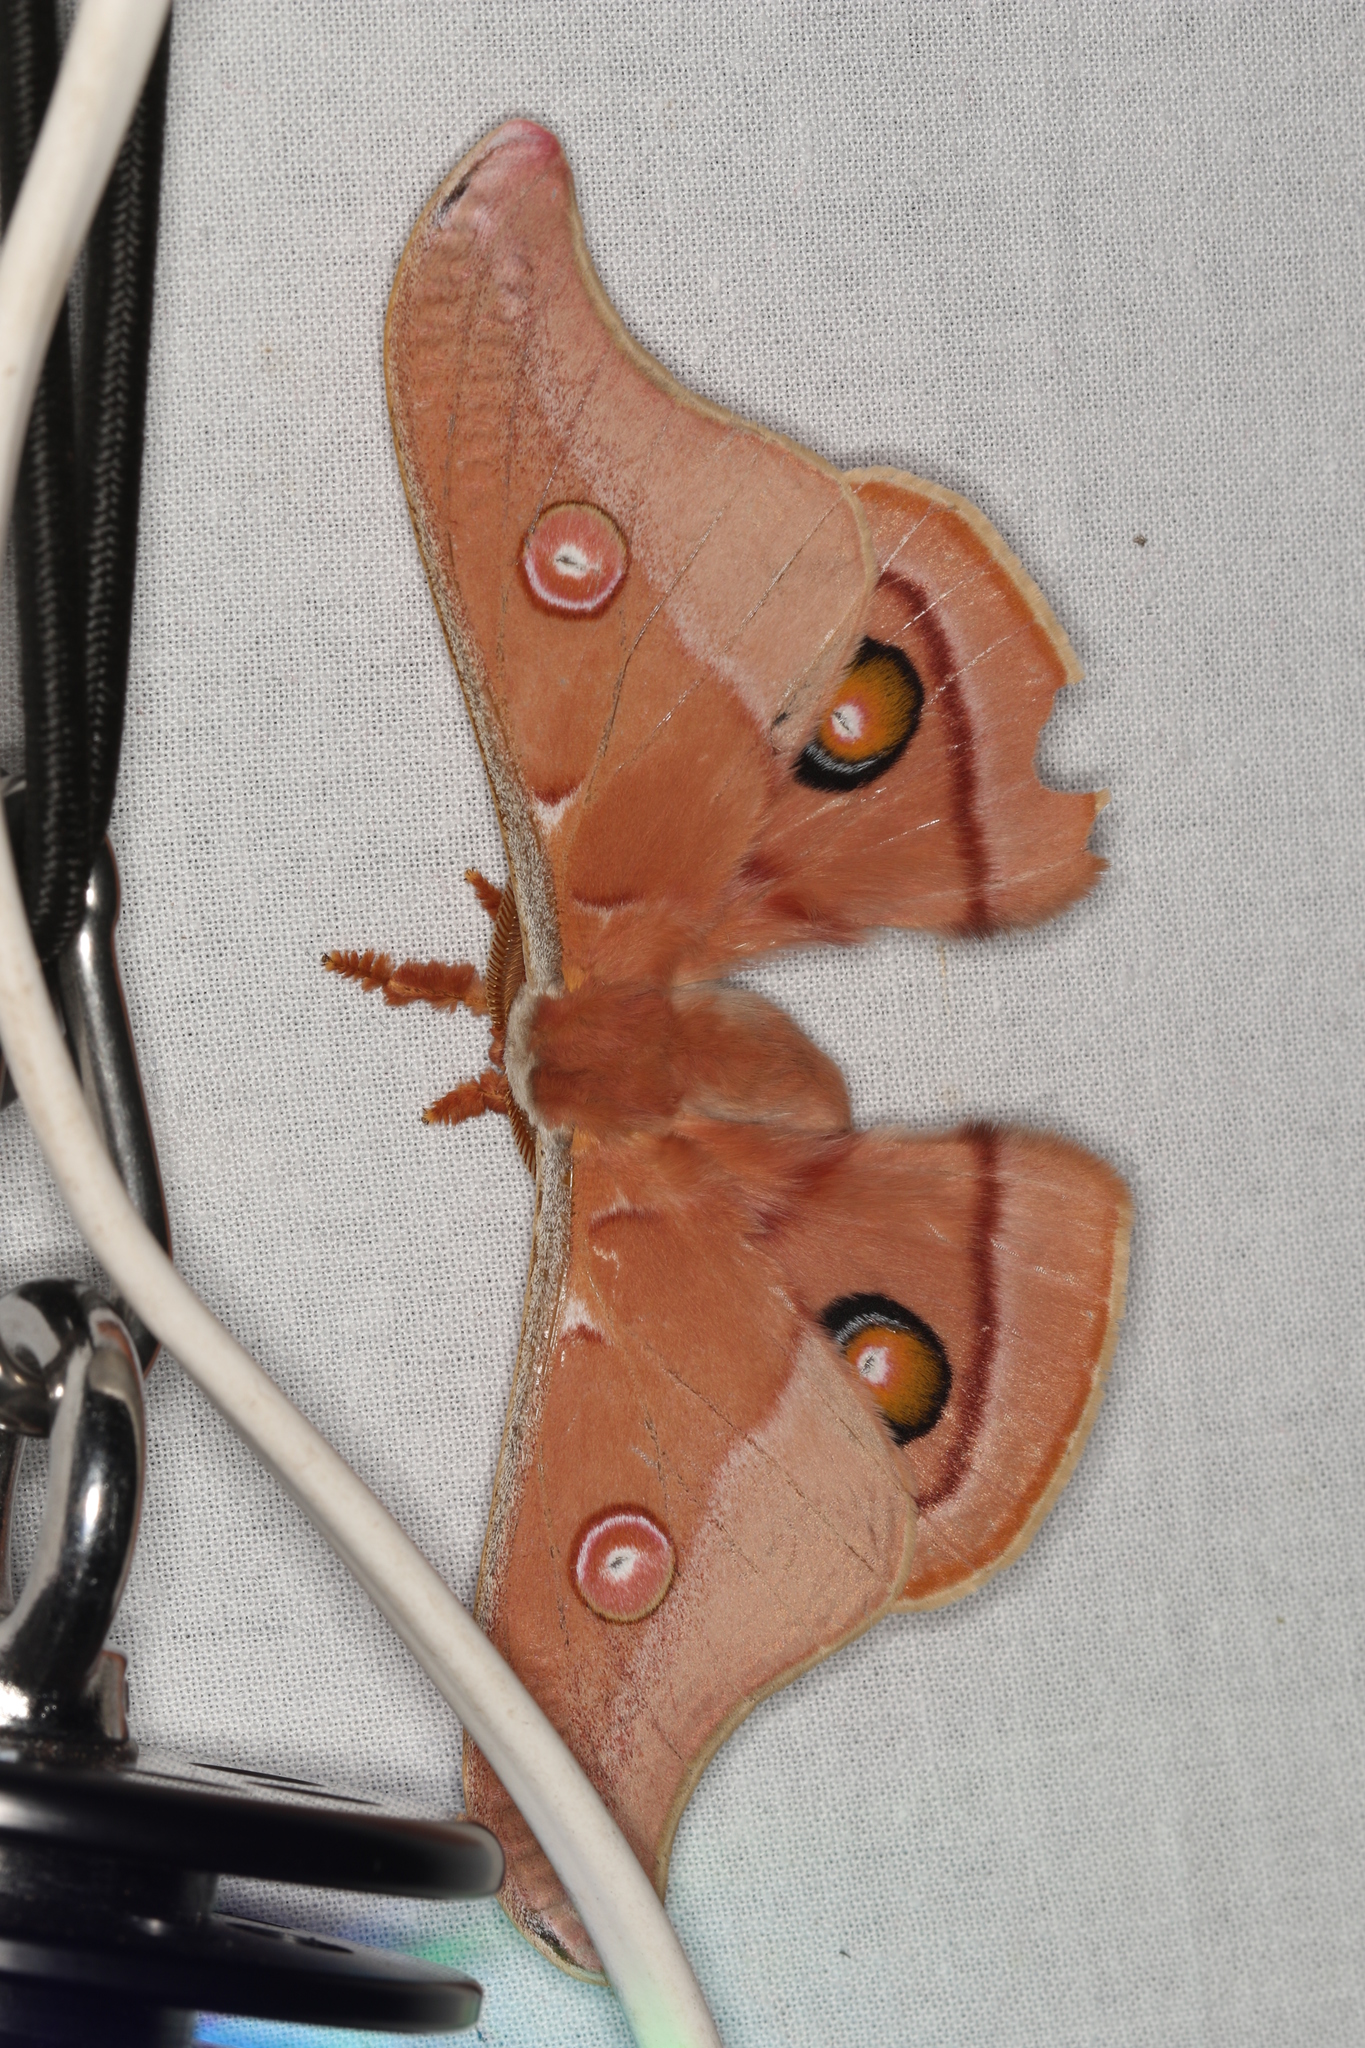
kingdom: Animalia
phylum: Arthropoda
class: Insecta
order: Lepidoptera
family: Saturniidae
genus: Opodiphthera
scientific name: Opodiphthera
